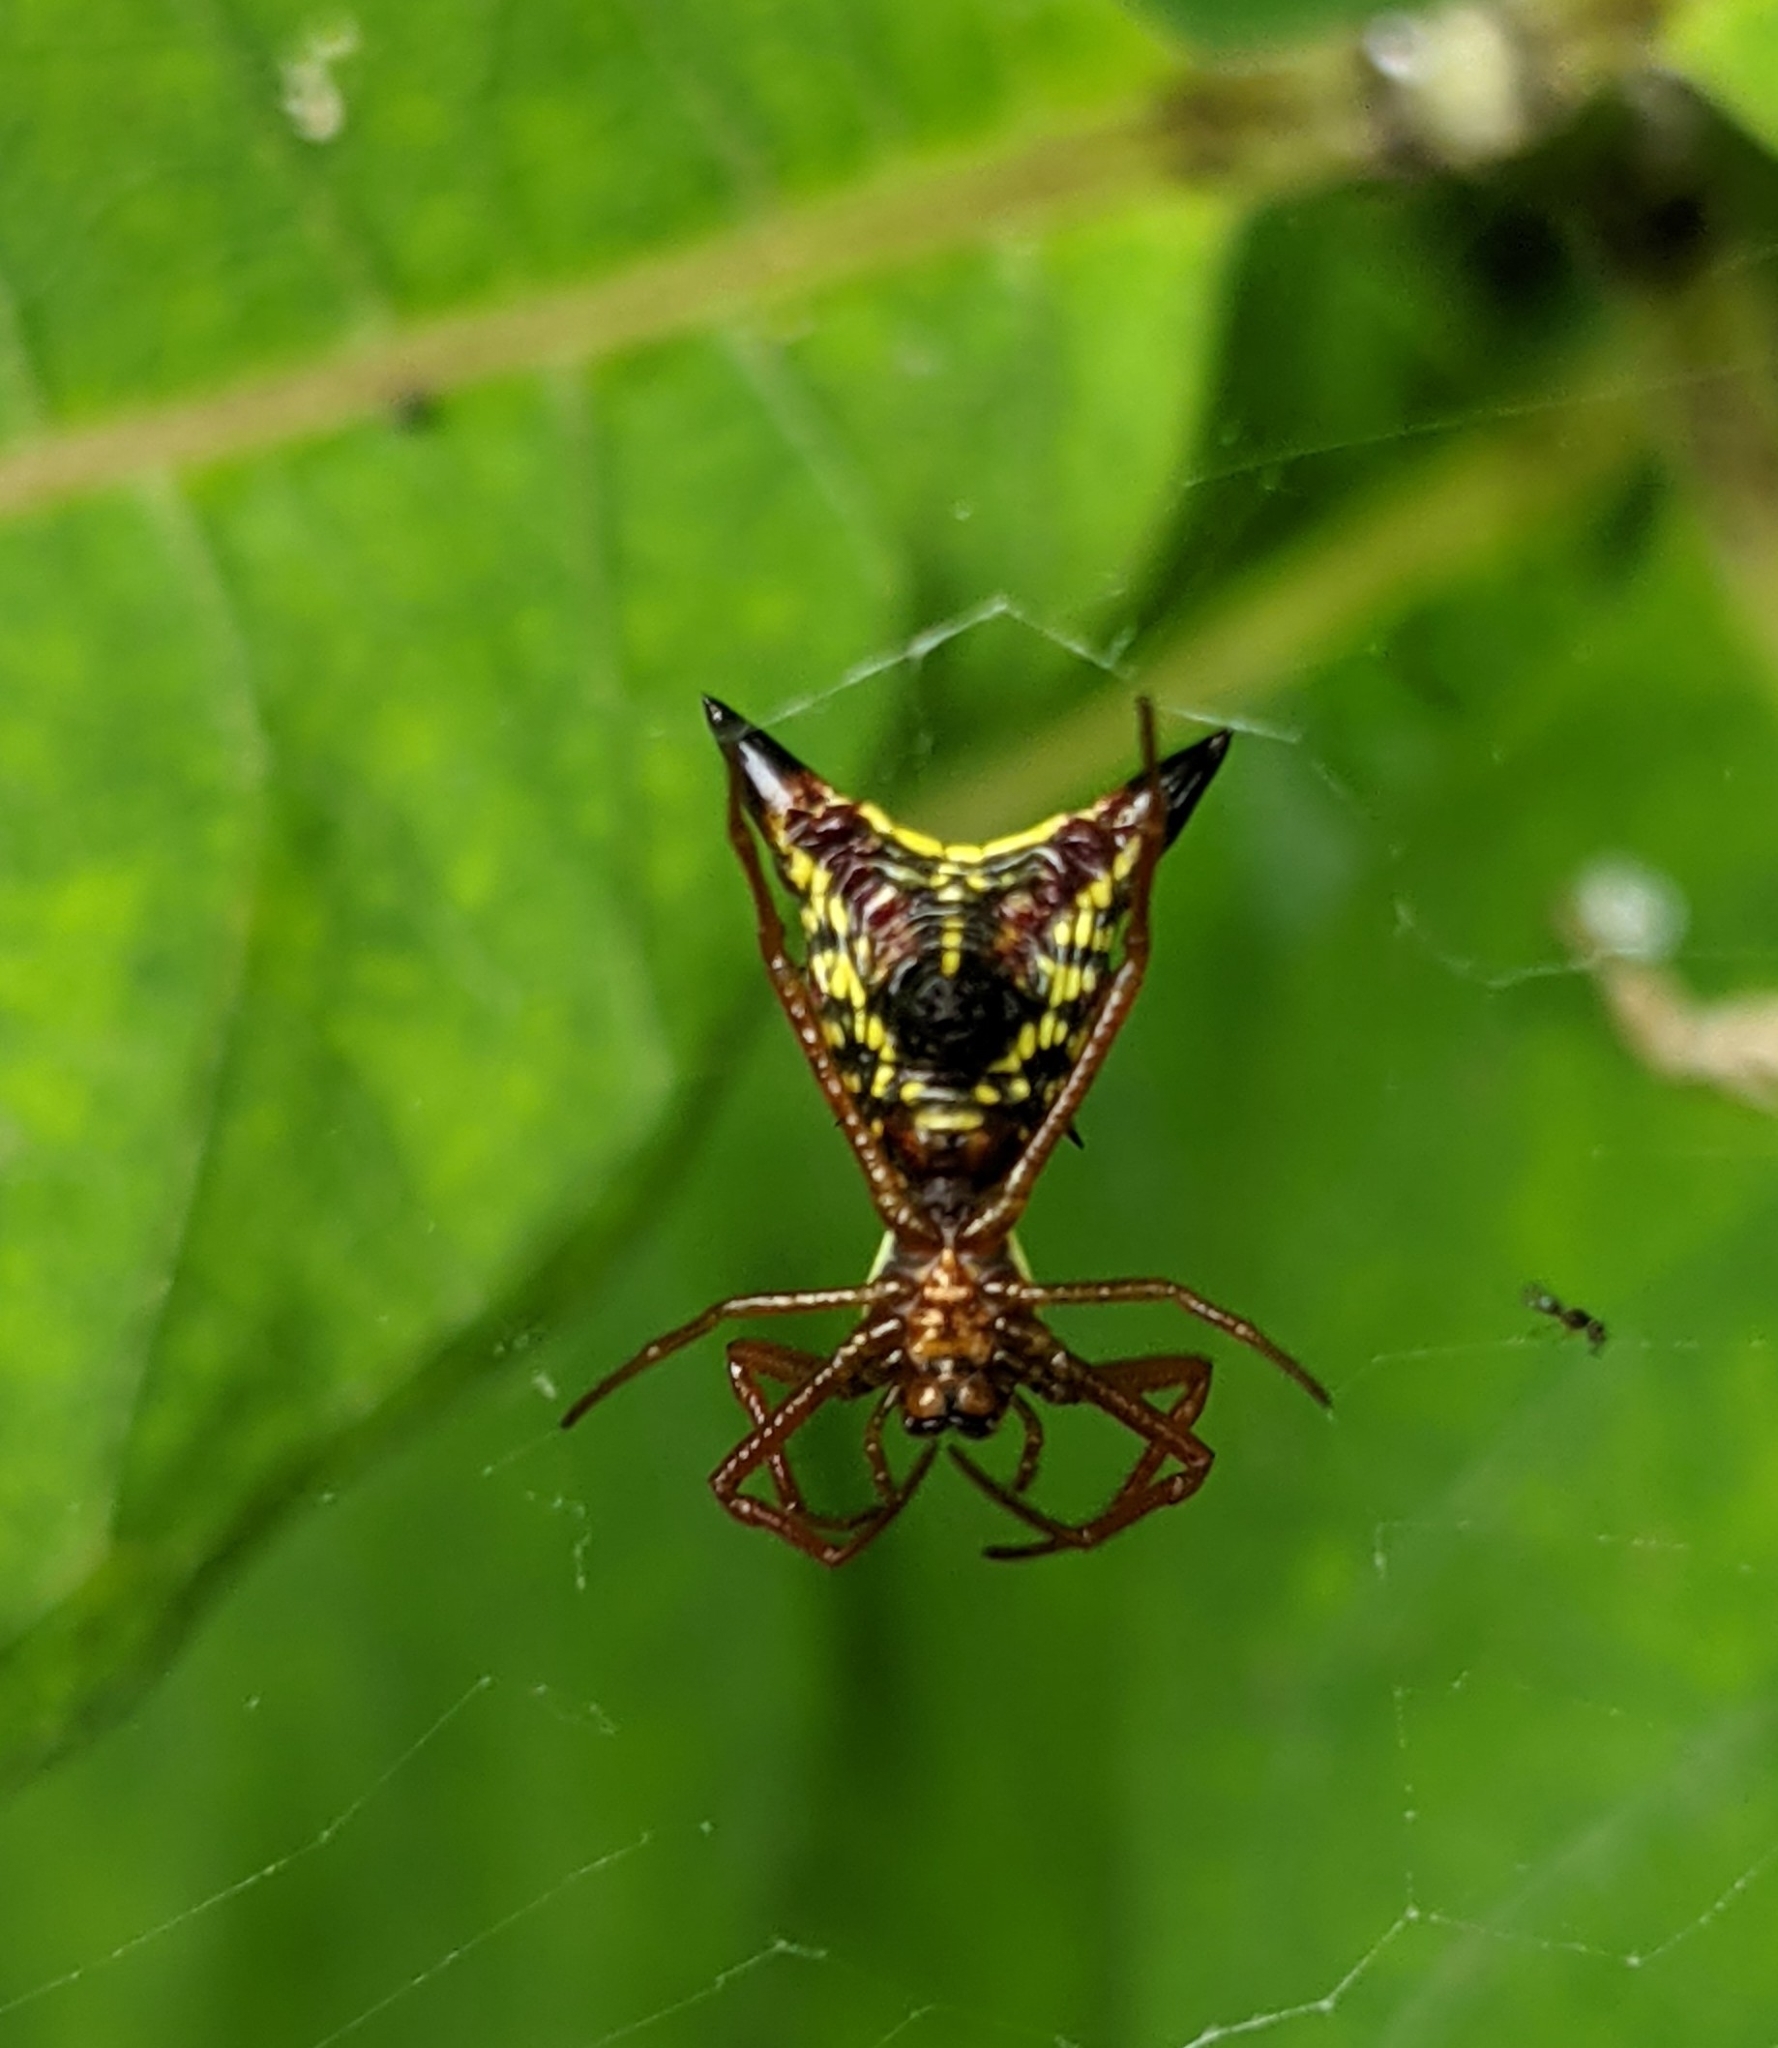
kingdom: Animalia
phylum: Arthropoda
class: Arachnida
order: Araneae
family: Araneidae
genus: Micrathena
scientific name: Micrathena sagittata
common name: Orb weavers
